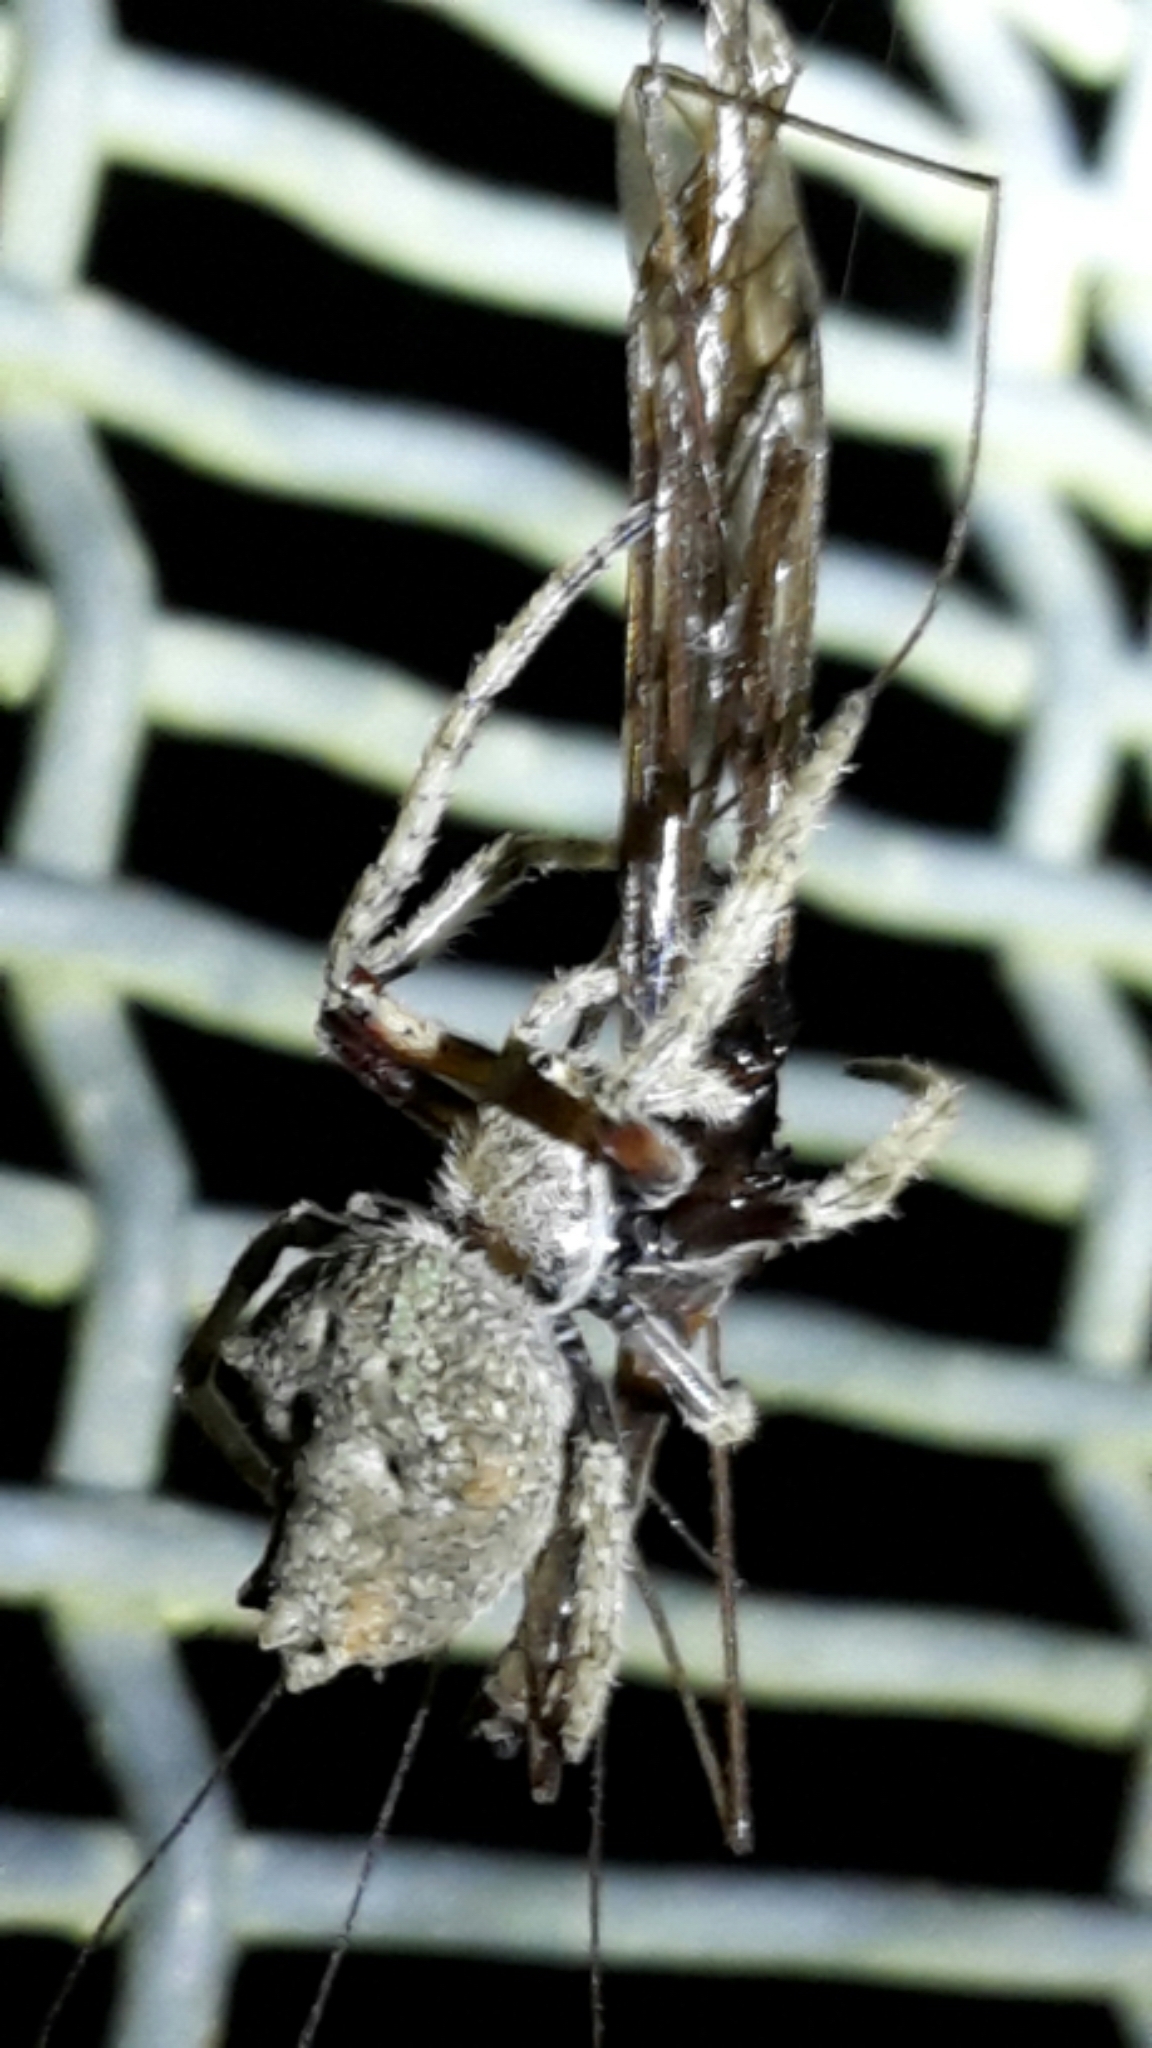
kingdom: Animalia
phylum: Arthropoda
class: Arachnida
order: Araneae
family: Araneidae
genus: Eriophora
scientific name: Eriophora pustulosa
